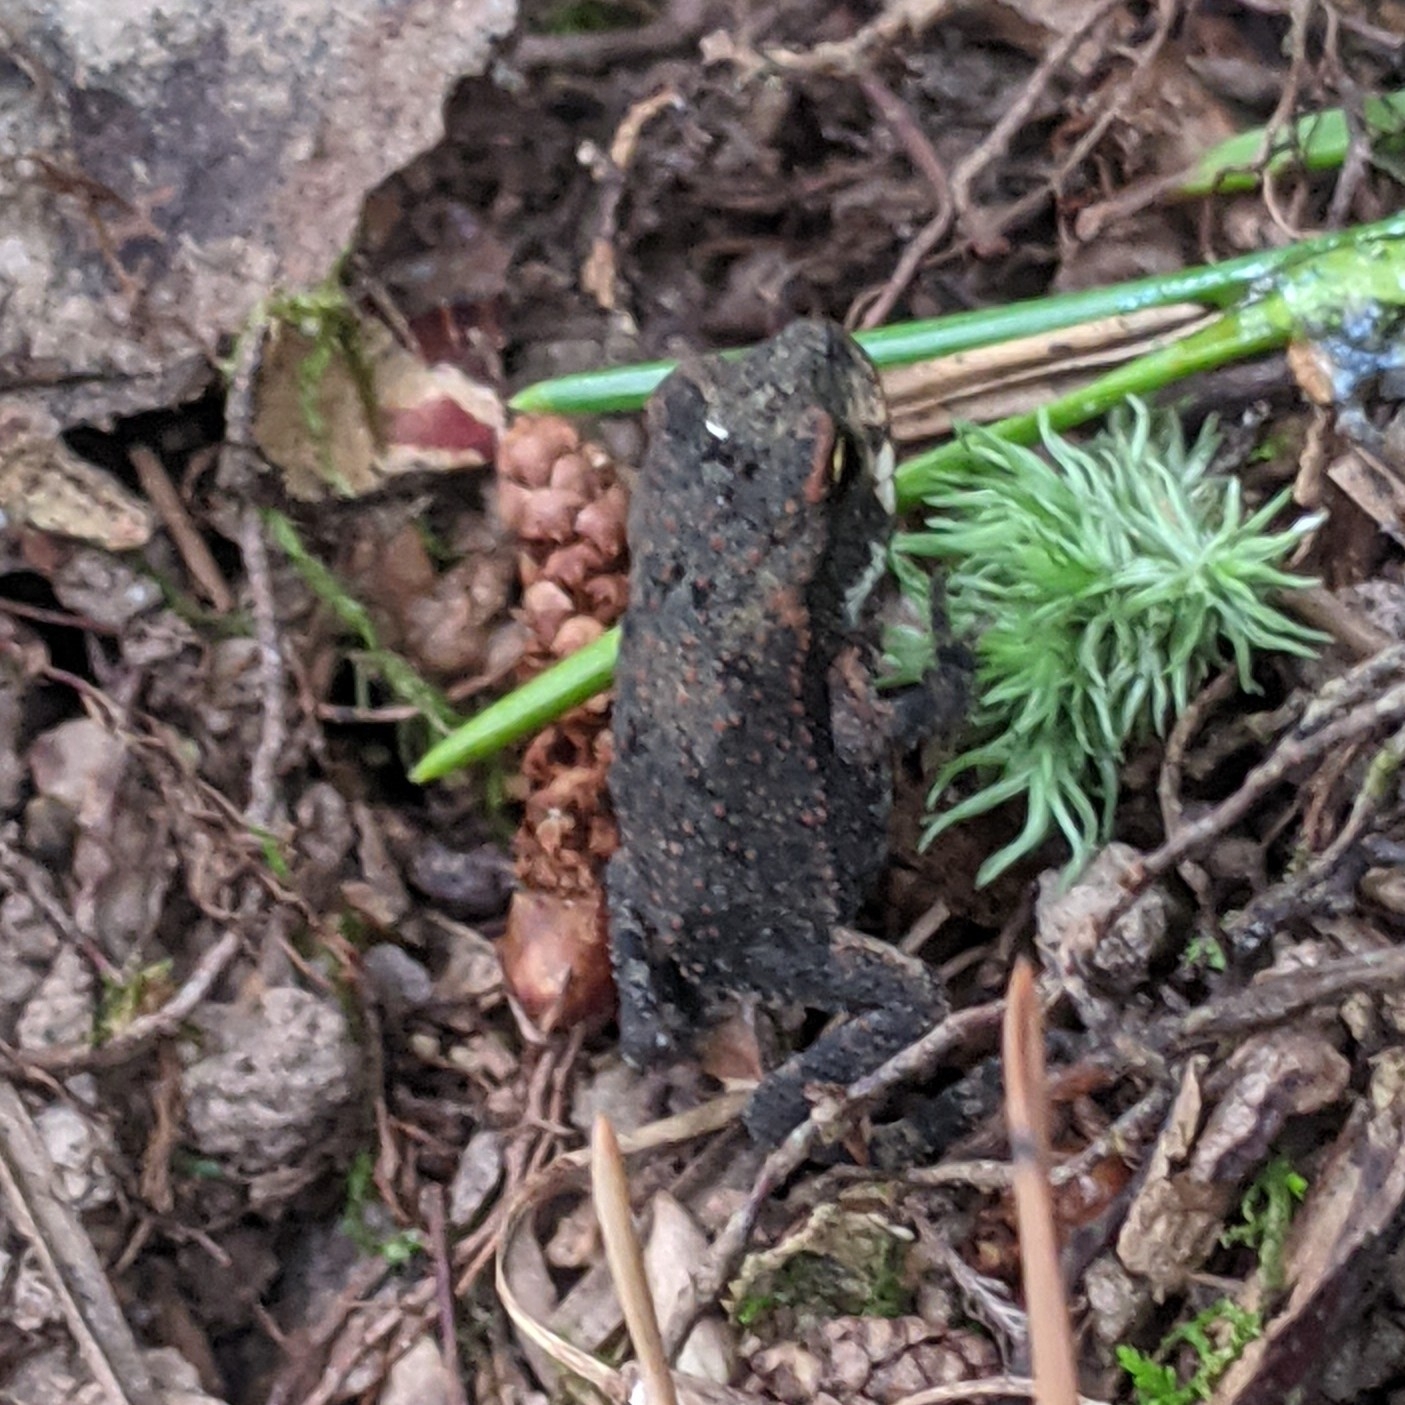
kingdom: Animalia
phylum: Chordata
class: Amphibia
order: Anura
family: Bufonidae
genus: Incilius
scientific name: Incilius nebulifer
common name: Gulf coast toad
